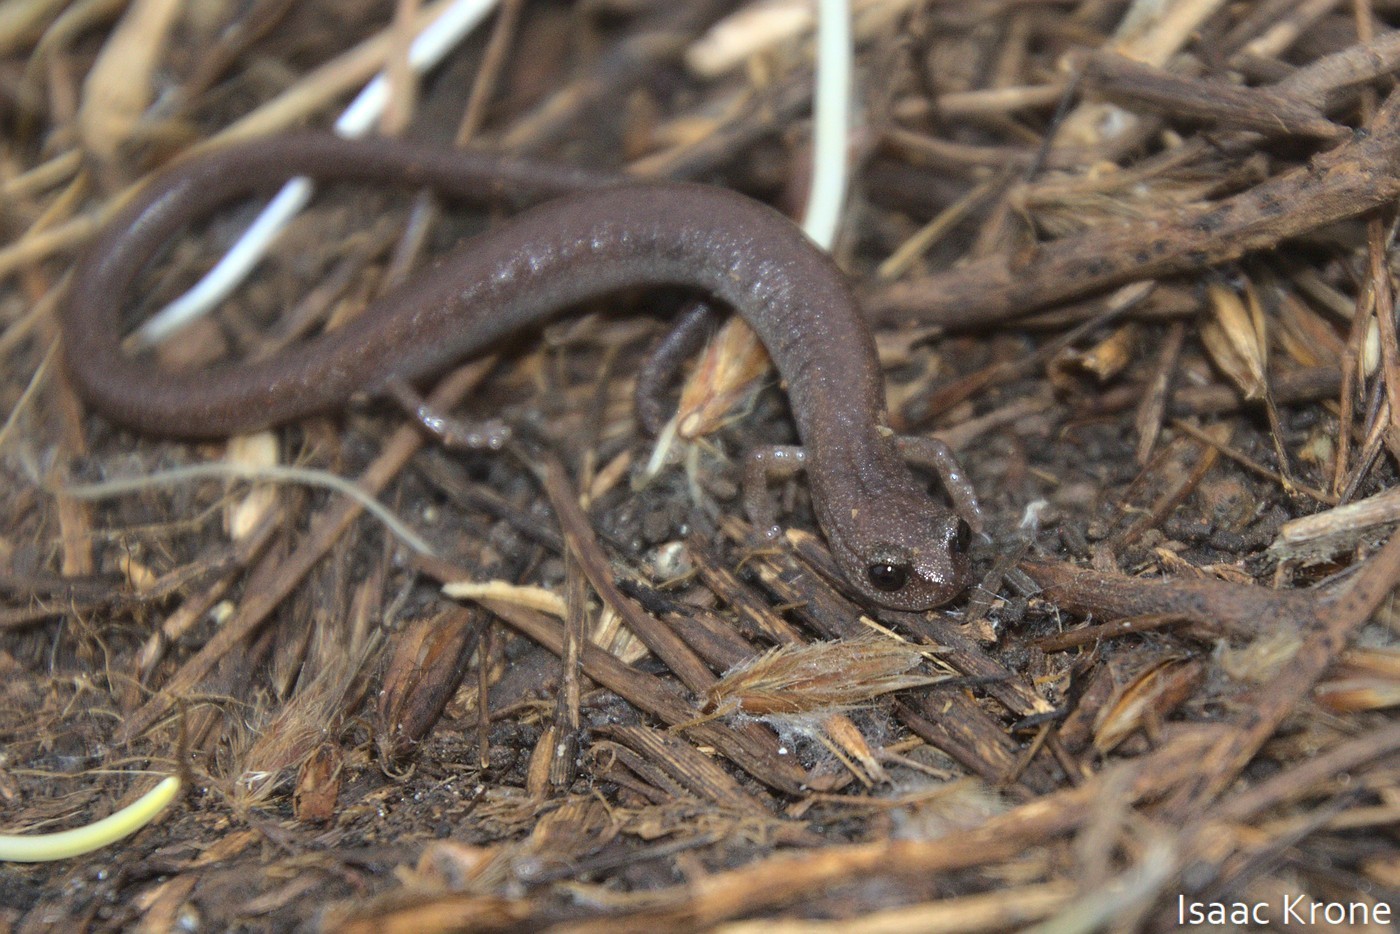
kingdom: Animalia
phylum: Chordata
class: Amphibia
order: Caudata
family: Plethodontidae
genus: Batrachoseps
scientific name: Batrachoseps major
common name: Garden slender salamander
